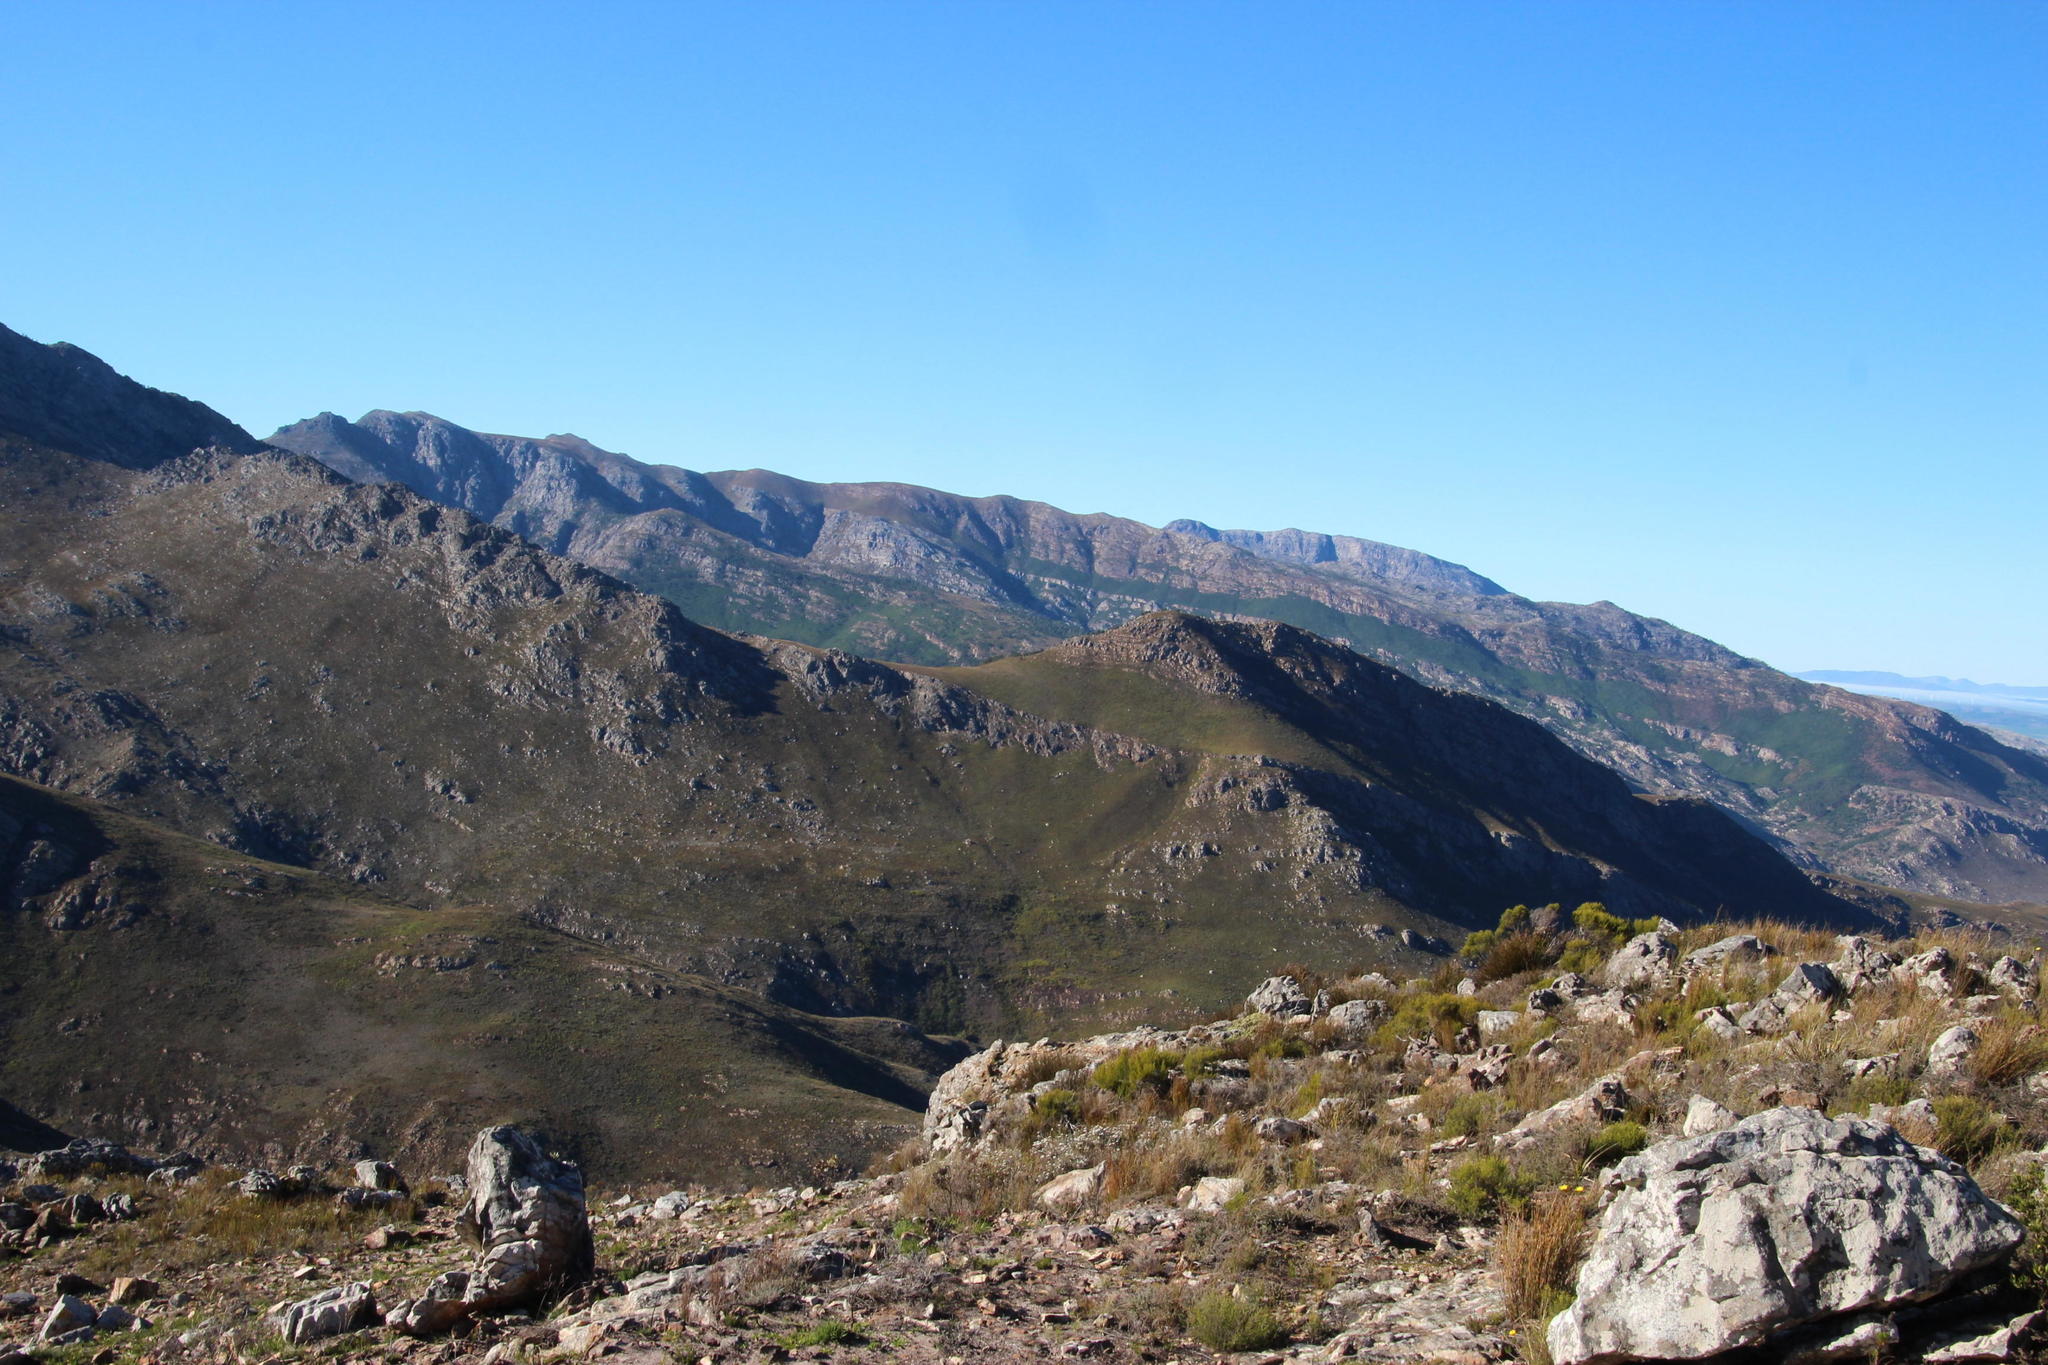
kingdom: Plantae
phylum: Tracheophyta
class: Pinopsida
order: Pinales
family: Pinaceae
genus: Pinus
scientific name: Pinus pinaster
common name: Maritime pine
